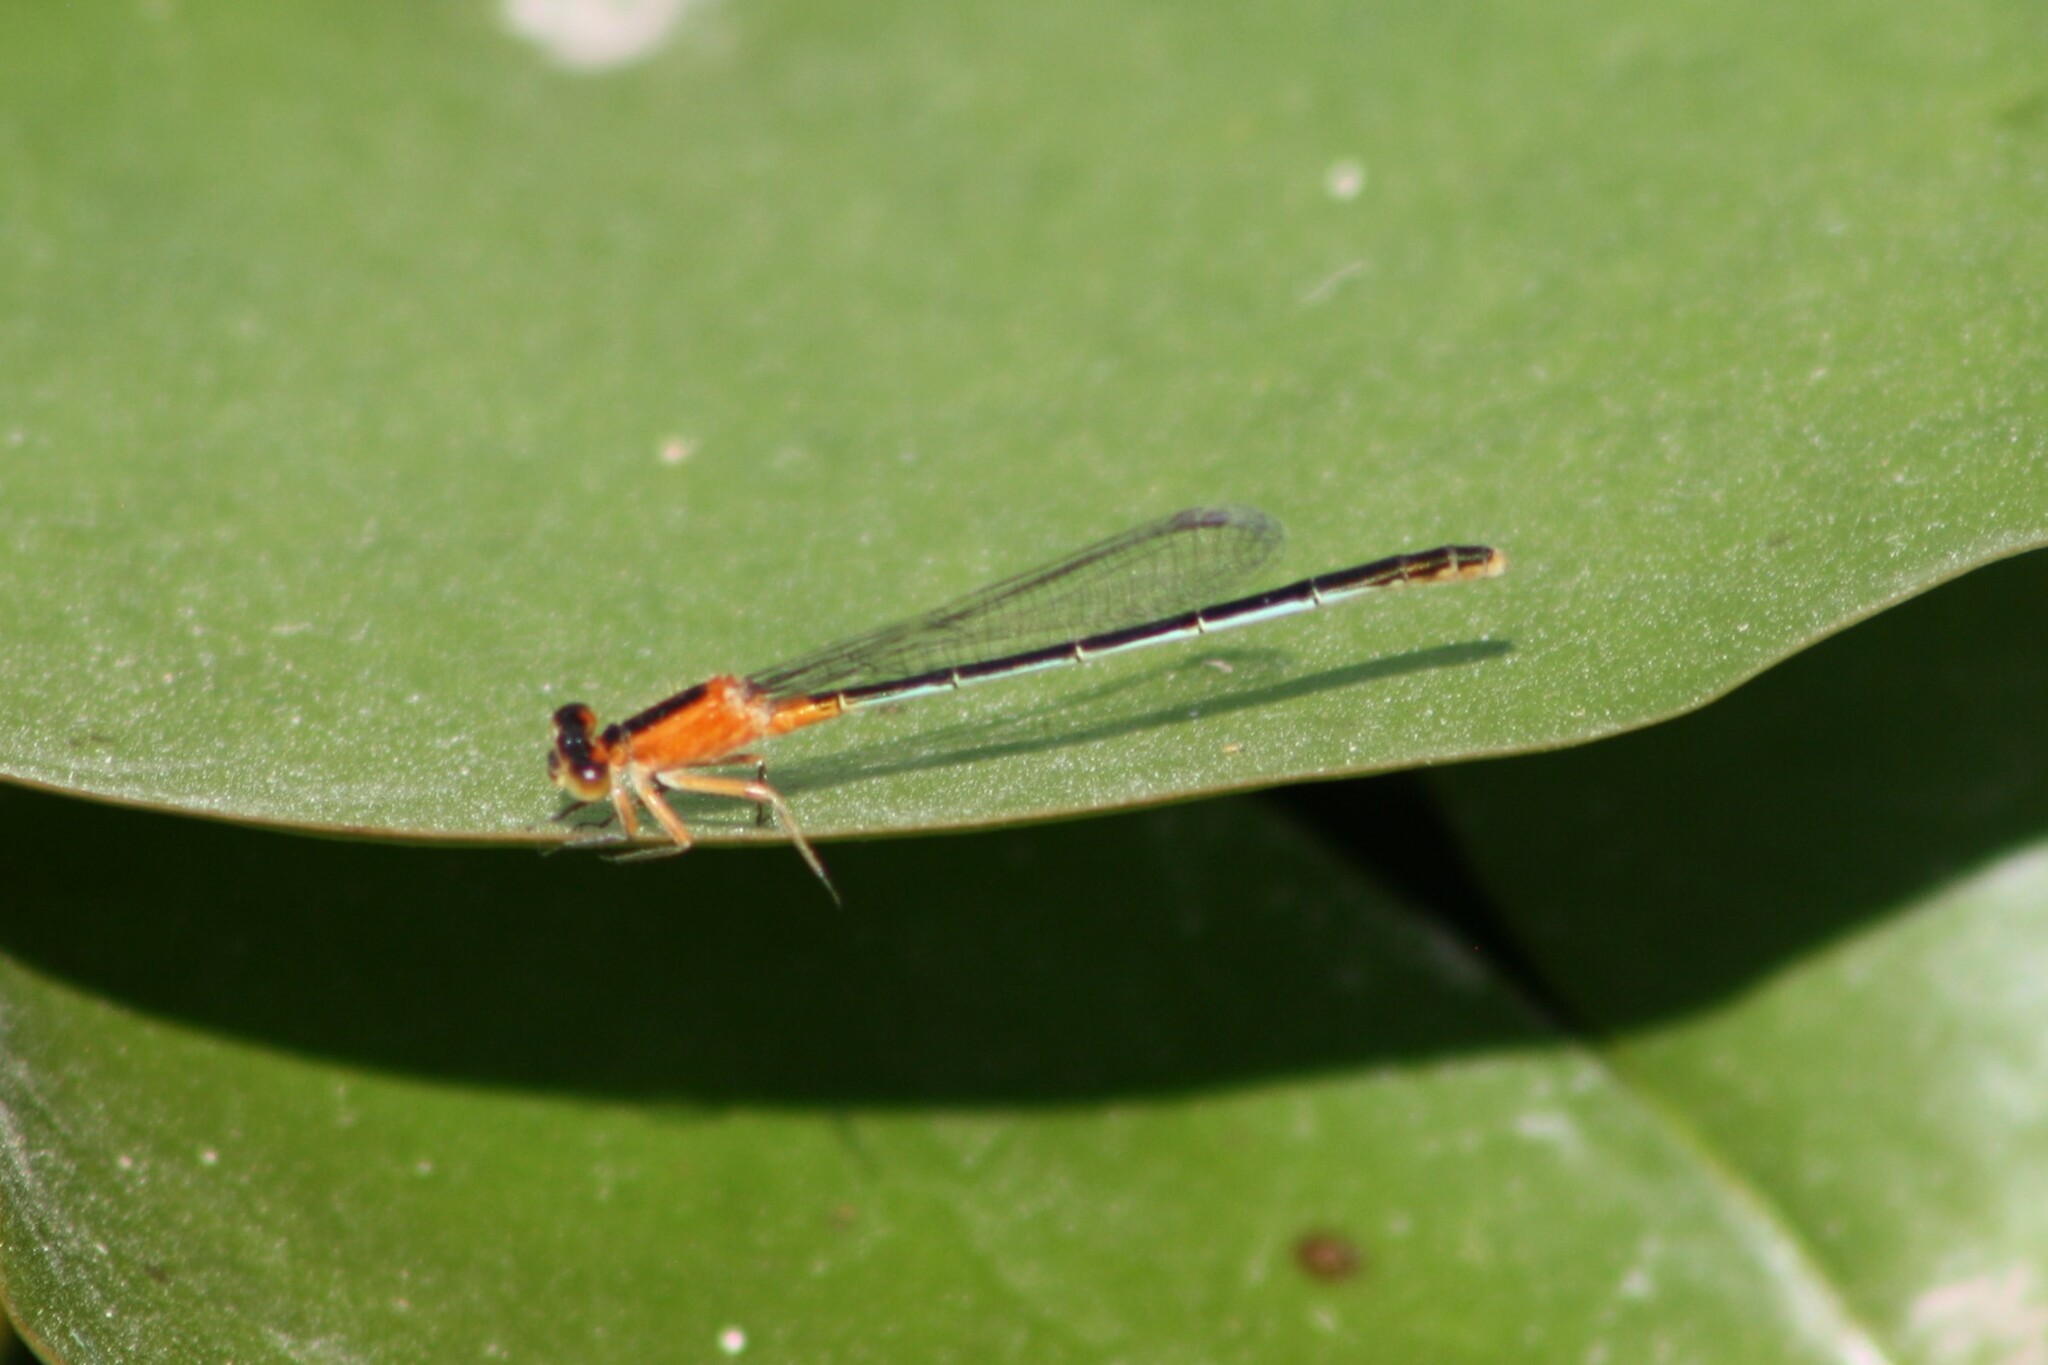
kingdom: Animalia
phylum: Arthropoda
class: Insecta
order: Odonata
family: Coenagrionidae
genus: Ischnura
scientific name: Ischnura ramburii
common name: Rambur's forktail
